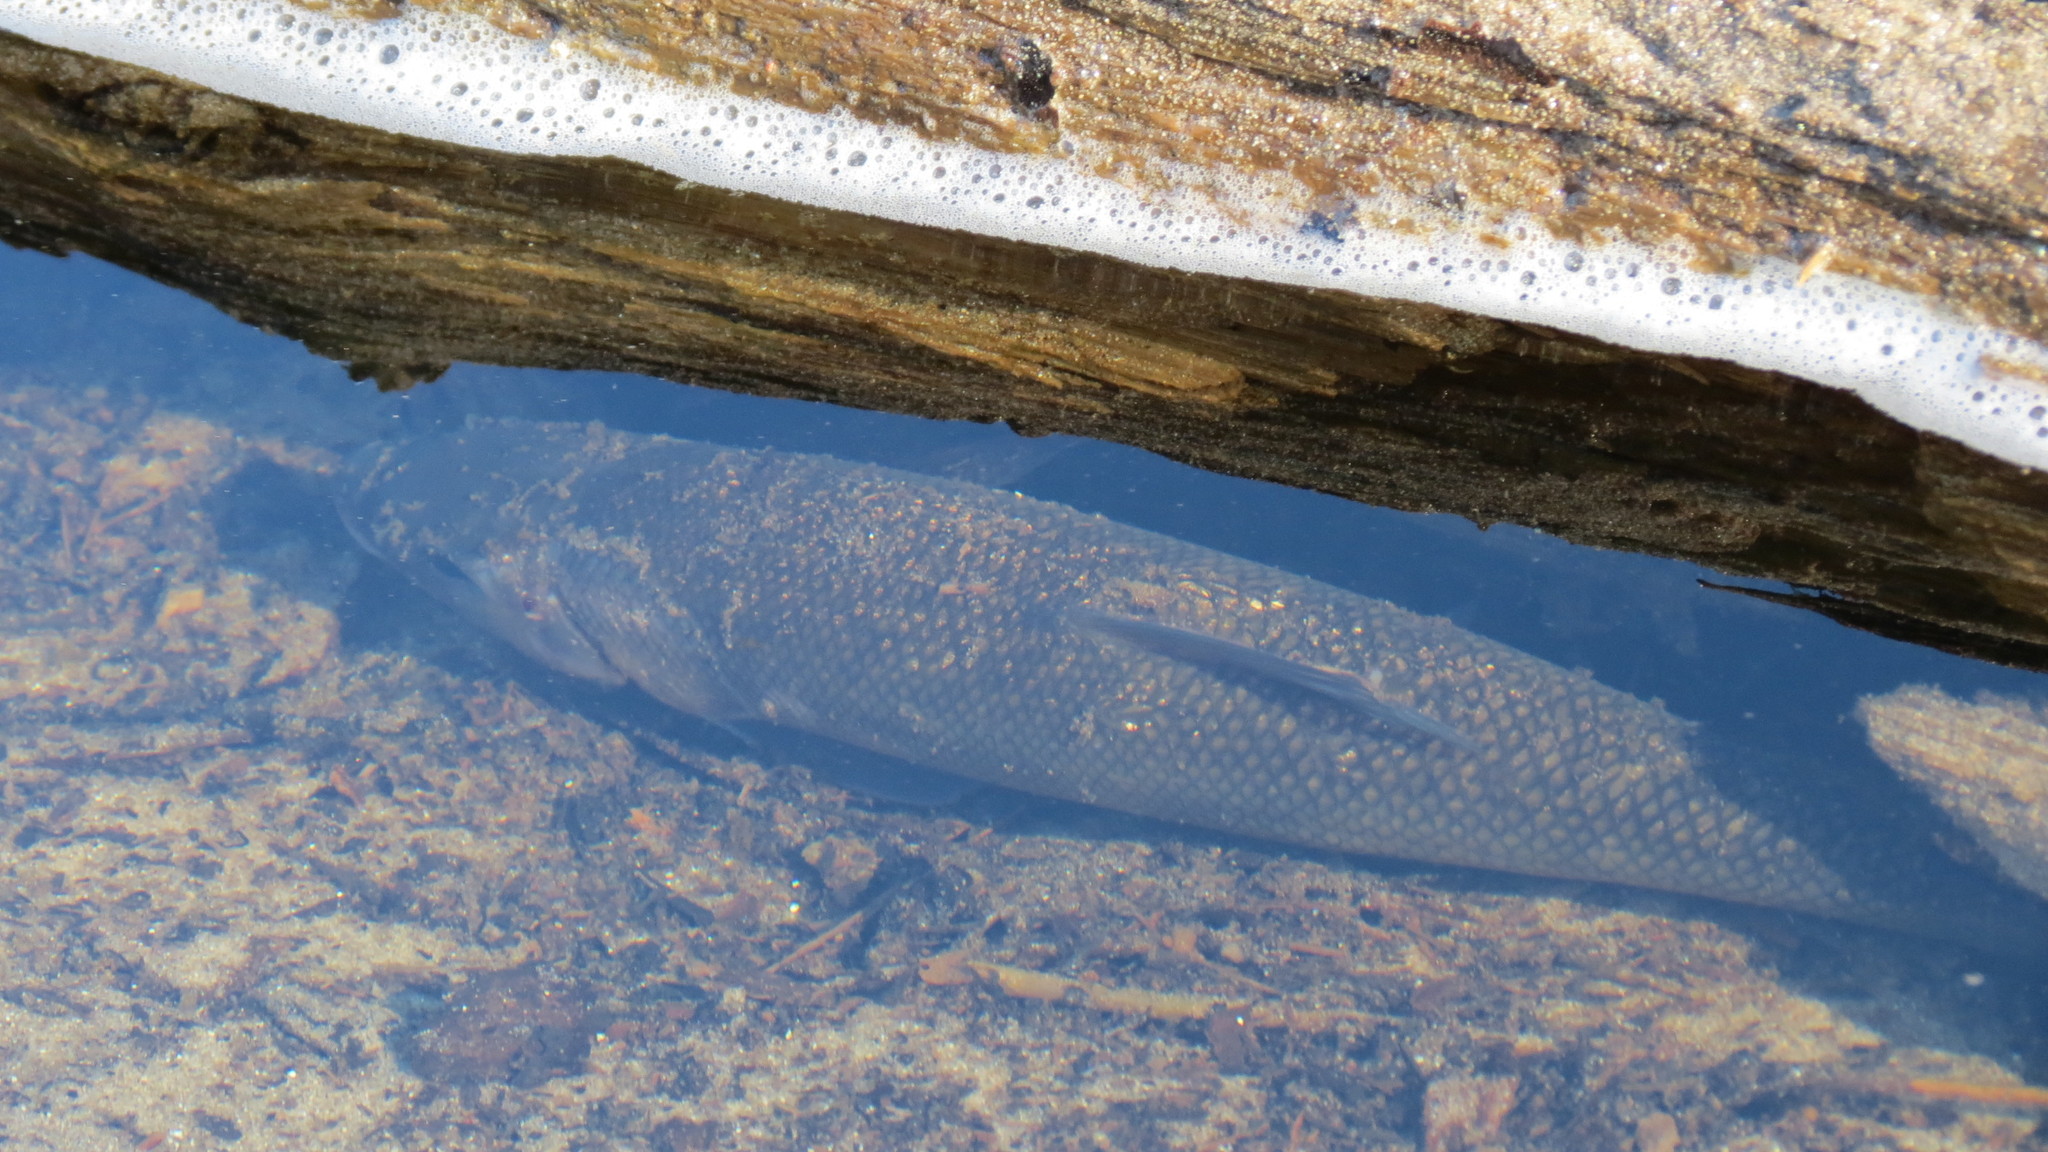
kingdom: Animalia
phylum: Chordata
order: Cypriniformes
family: Catostomidae
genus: Catostomus
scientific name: Catostomus commersonii
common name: White sucker
